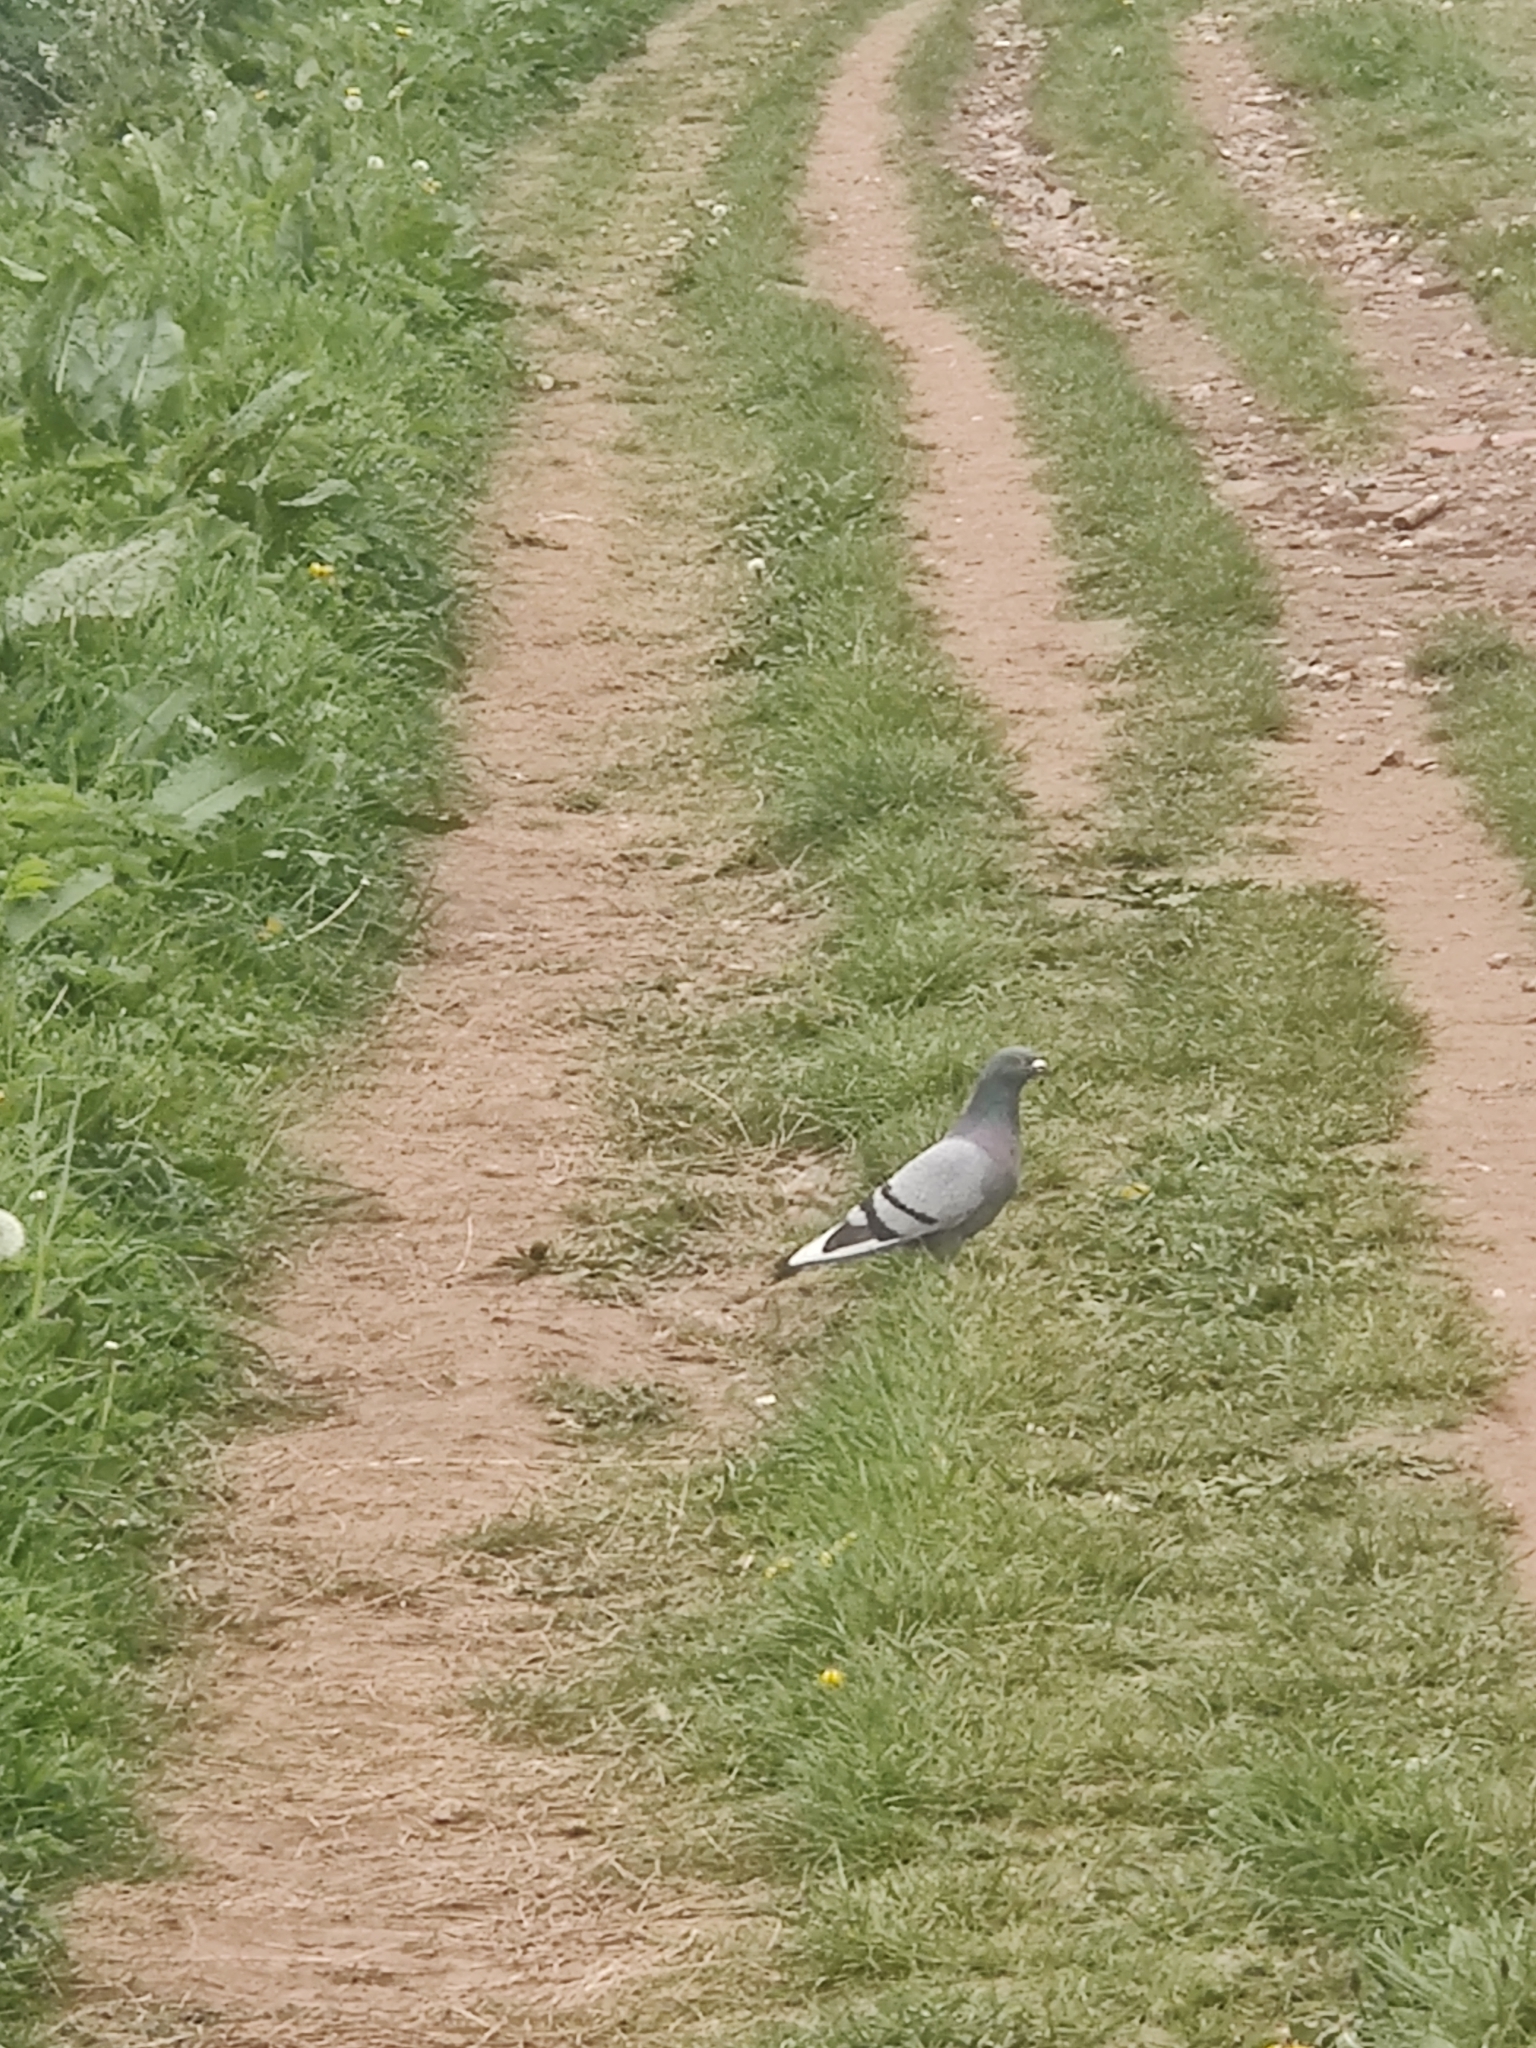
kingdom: Animalia
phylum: Chordata
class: Aves
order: Columbiformes
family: Columbidae
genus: Columba
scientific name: Columba livia
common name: Rock pigeon
